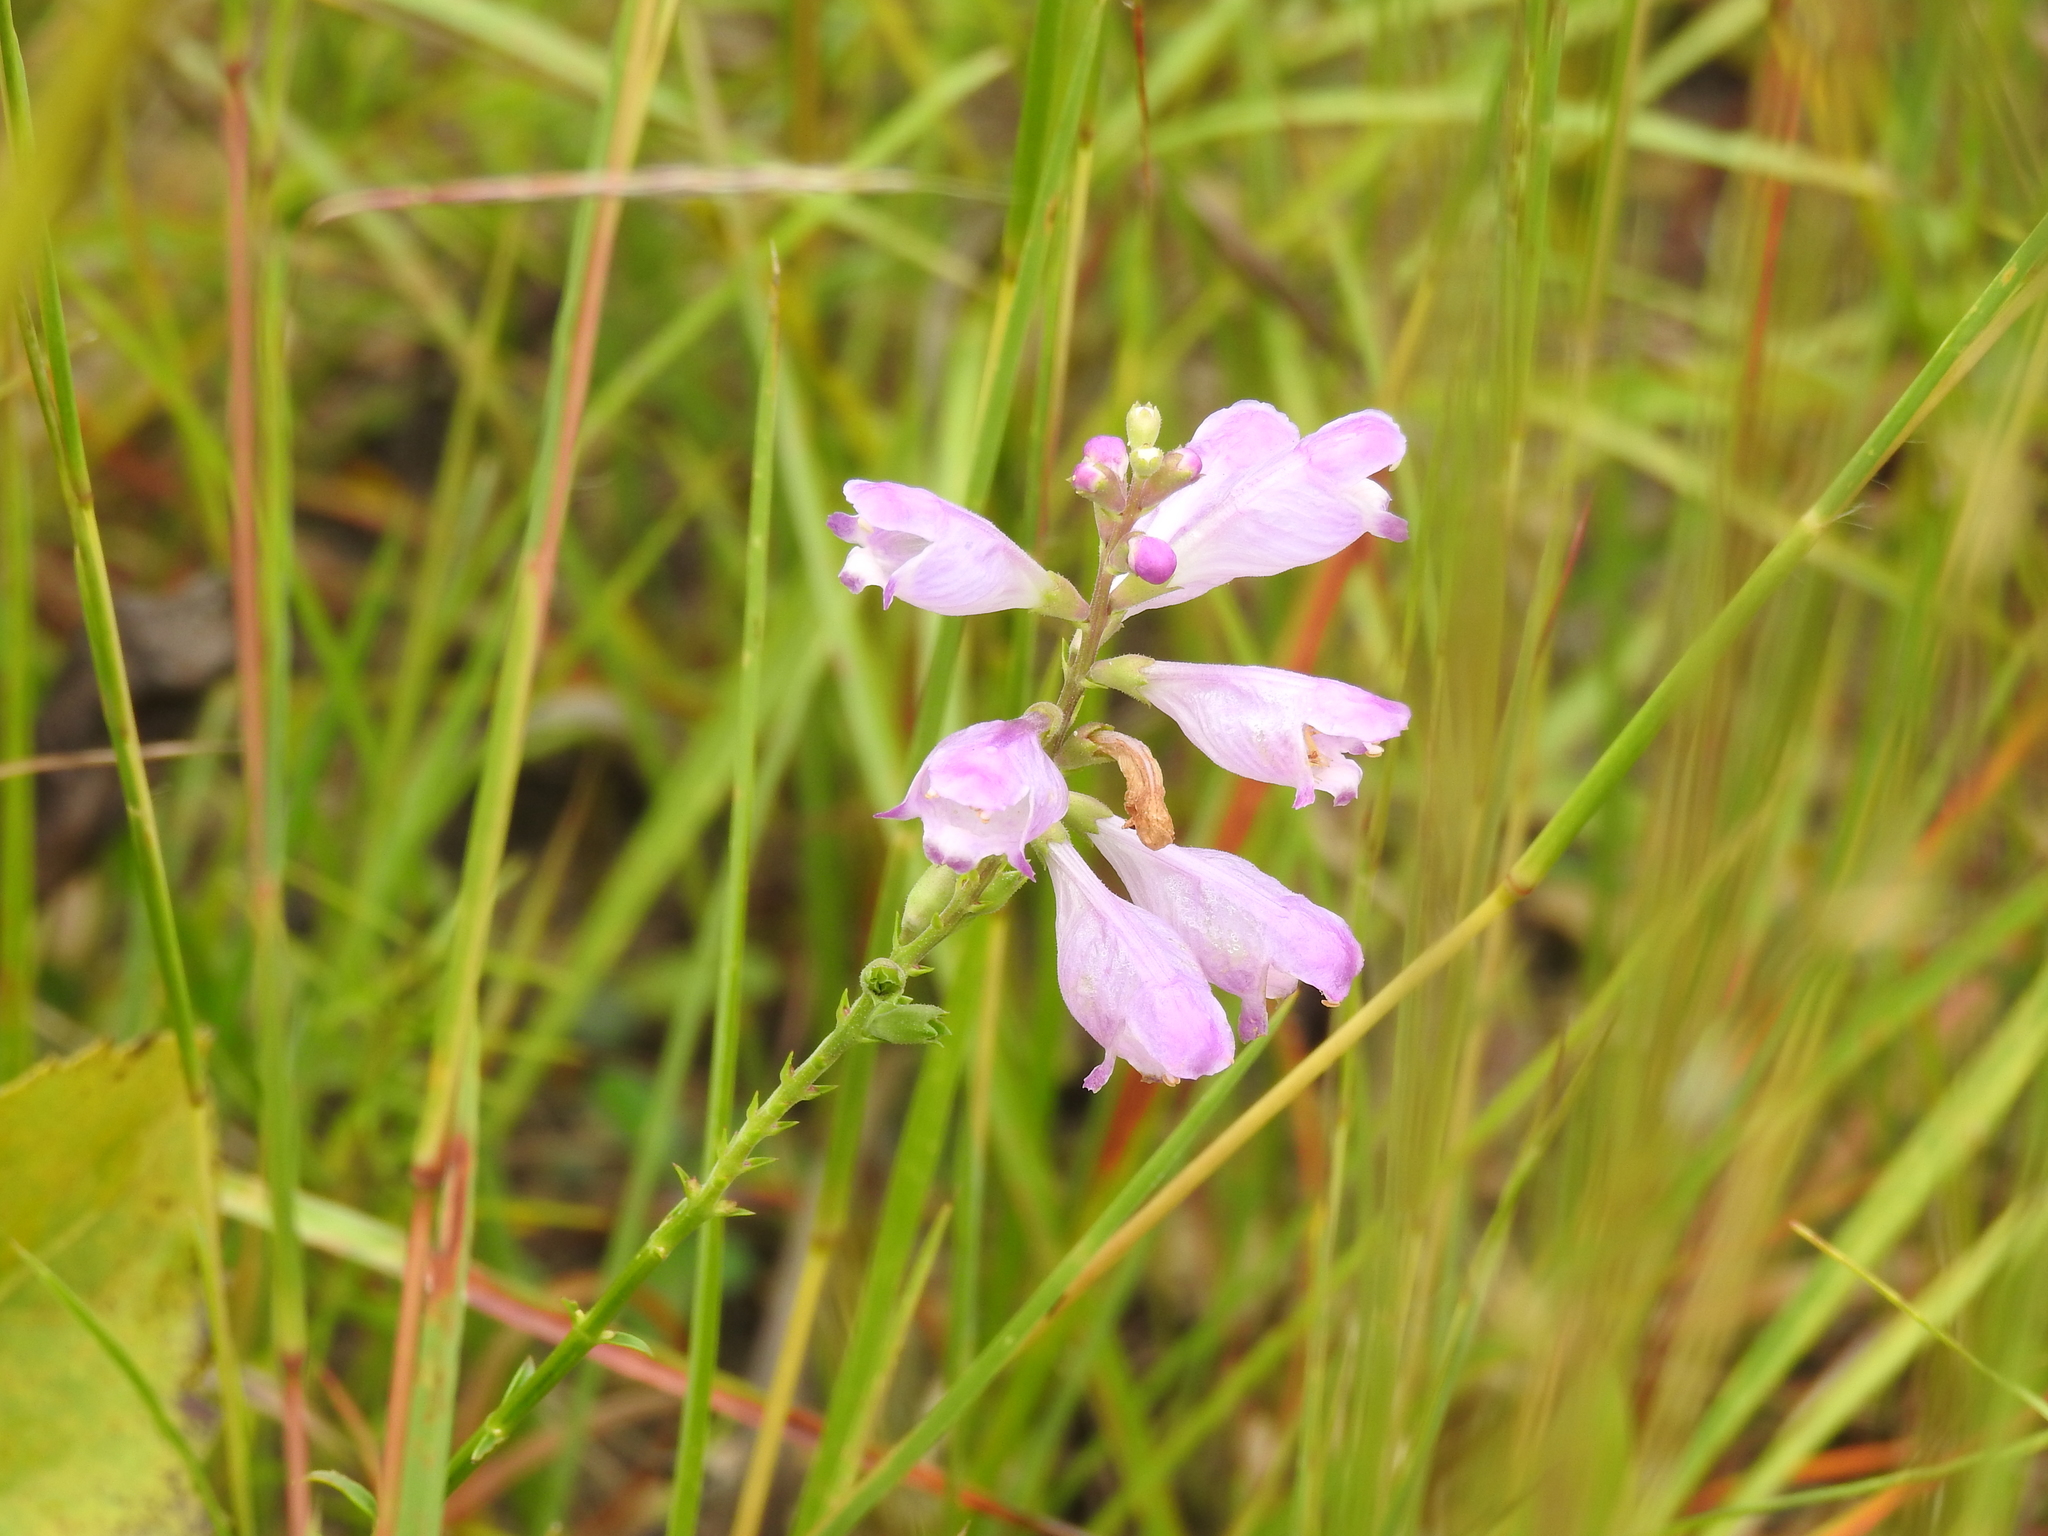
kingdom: Plantae
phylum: Tracheophyta
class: Magnoliopsida
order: Lamiales
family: Lamiaceae
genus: Physostegia
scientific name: Physostegia virginiana
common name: Obedient-plant
